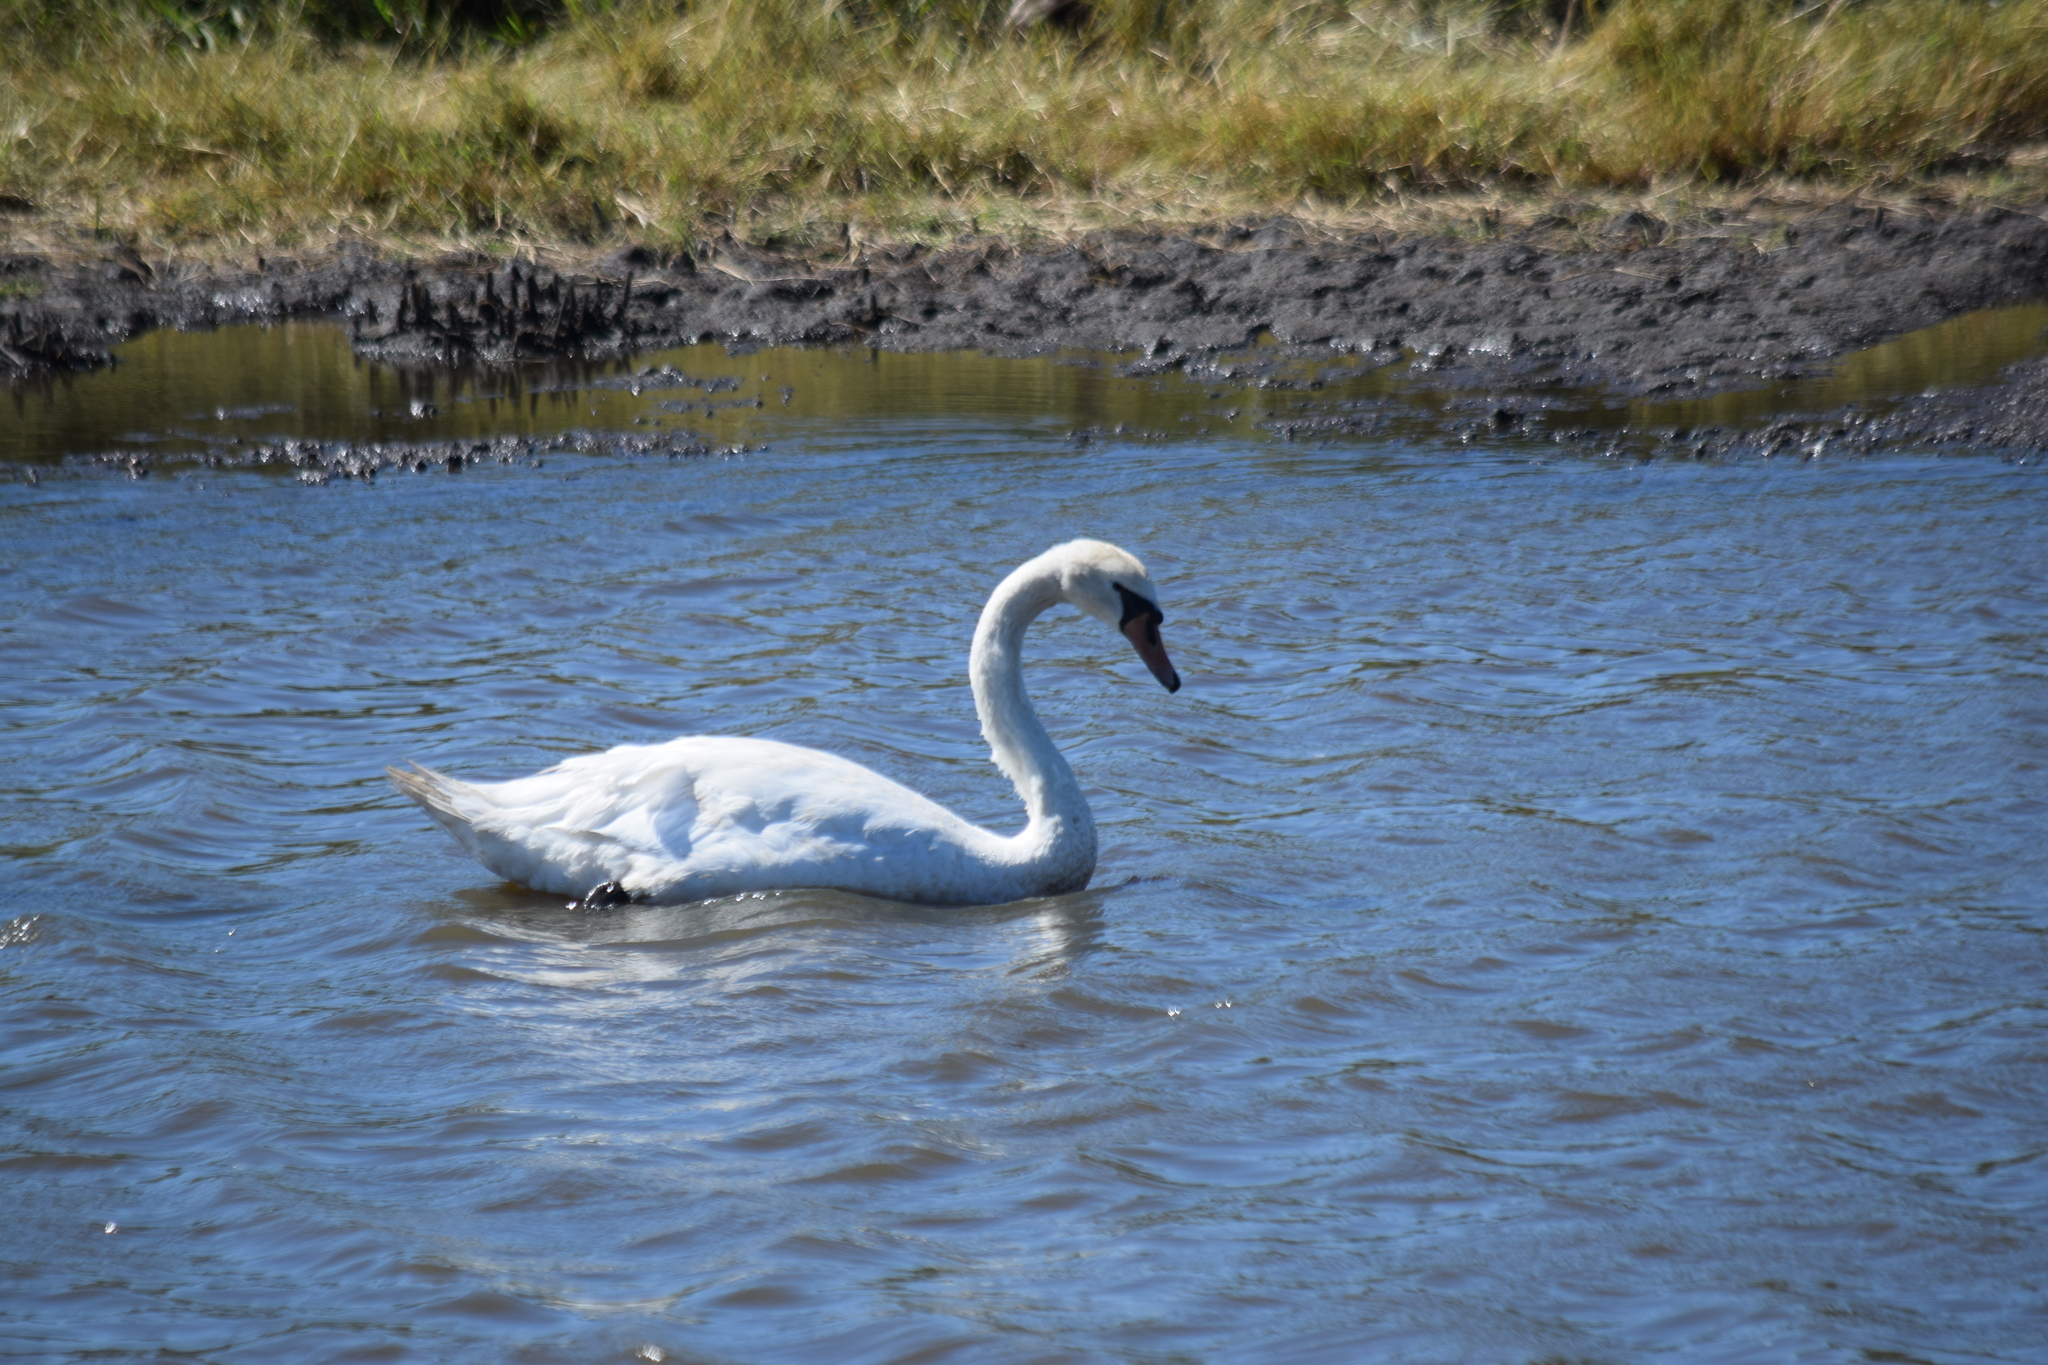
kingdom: Animalia
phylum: Chordata
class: Aves
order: Anseriformes
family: Anatidae
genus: Cygnus
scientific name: Cygnus olor
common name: Mute swan
